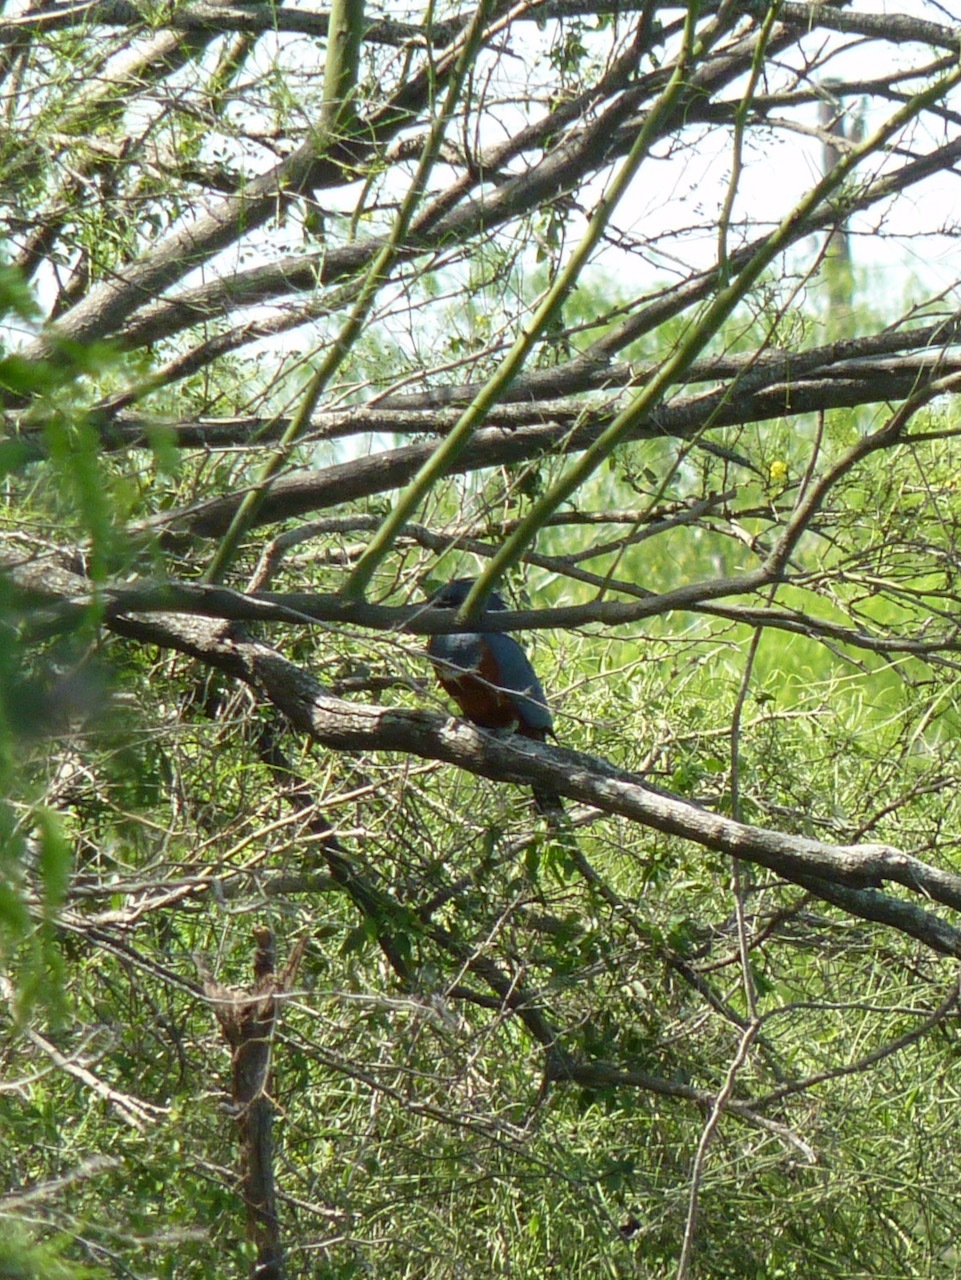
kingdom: Animalia
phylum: Chordata
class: Aves
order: Coraciiformes
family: Alcedinidae
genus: Megaceryle
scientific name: Megaceryle torquata
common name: Ringed kingfisher
